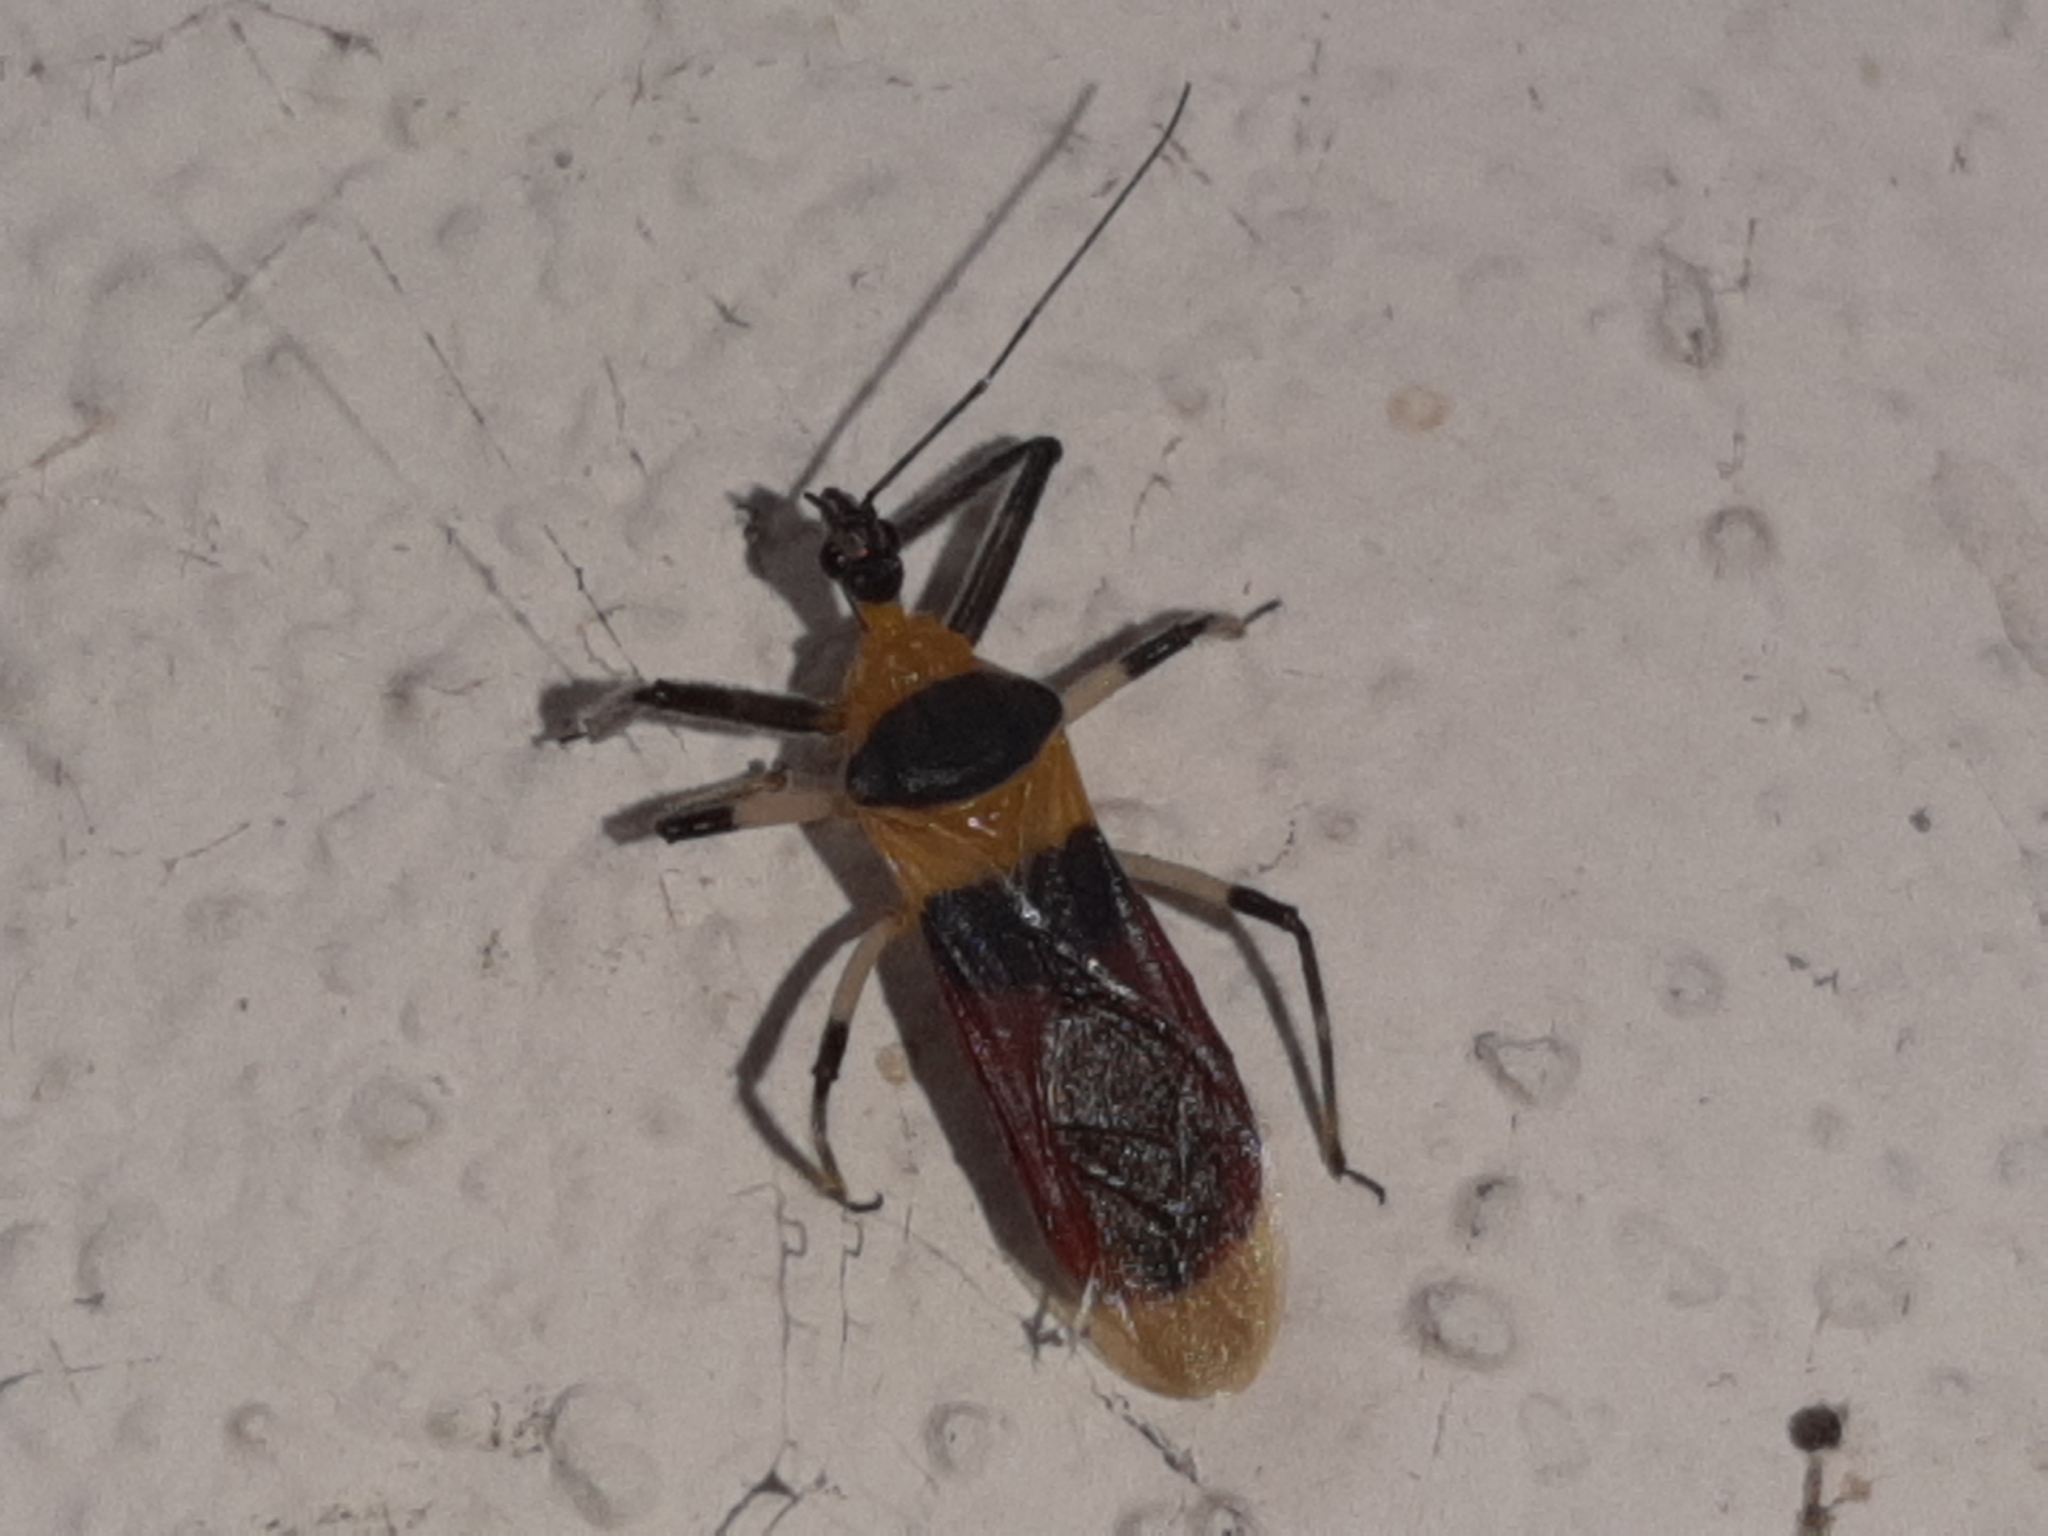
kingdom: Animalia
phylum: Arthropoda
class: Insecta
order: Hemiptera
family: Reduviidae
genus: Castolus
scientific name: Castolus tricolor
